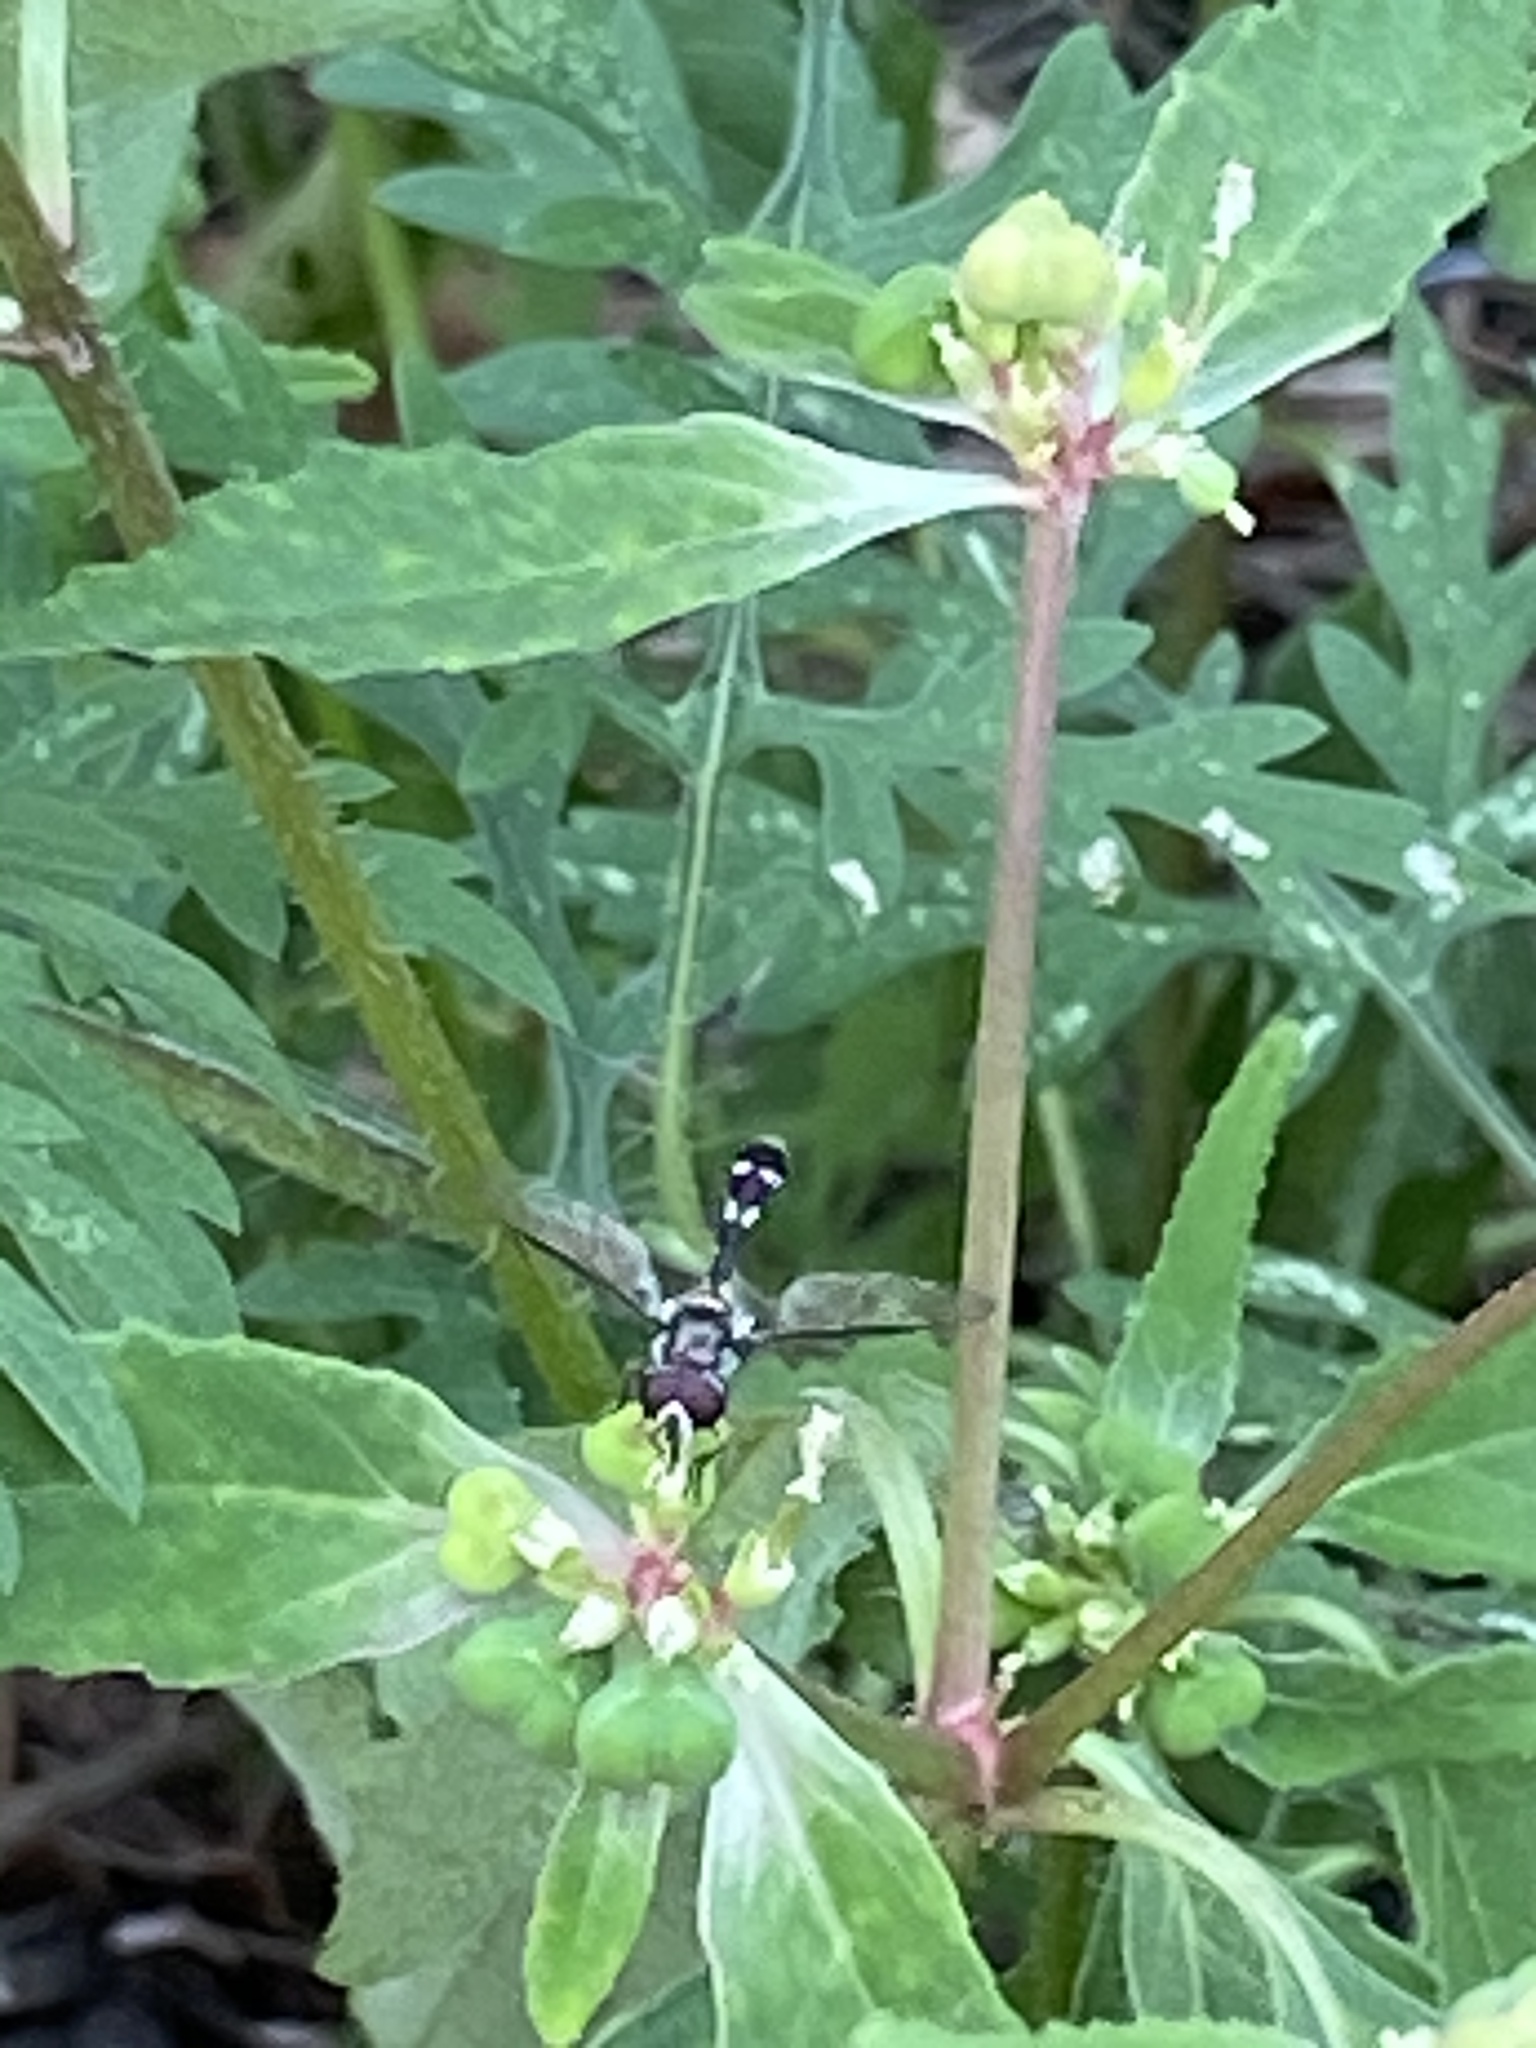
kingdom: Animalia
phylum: Arthropoda
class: Insecta
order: Diptera
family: Syrphidae
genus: Dioprosopa
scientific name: Dioprosopa clavatus
